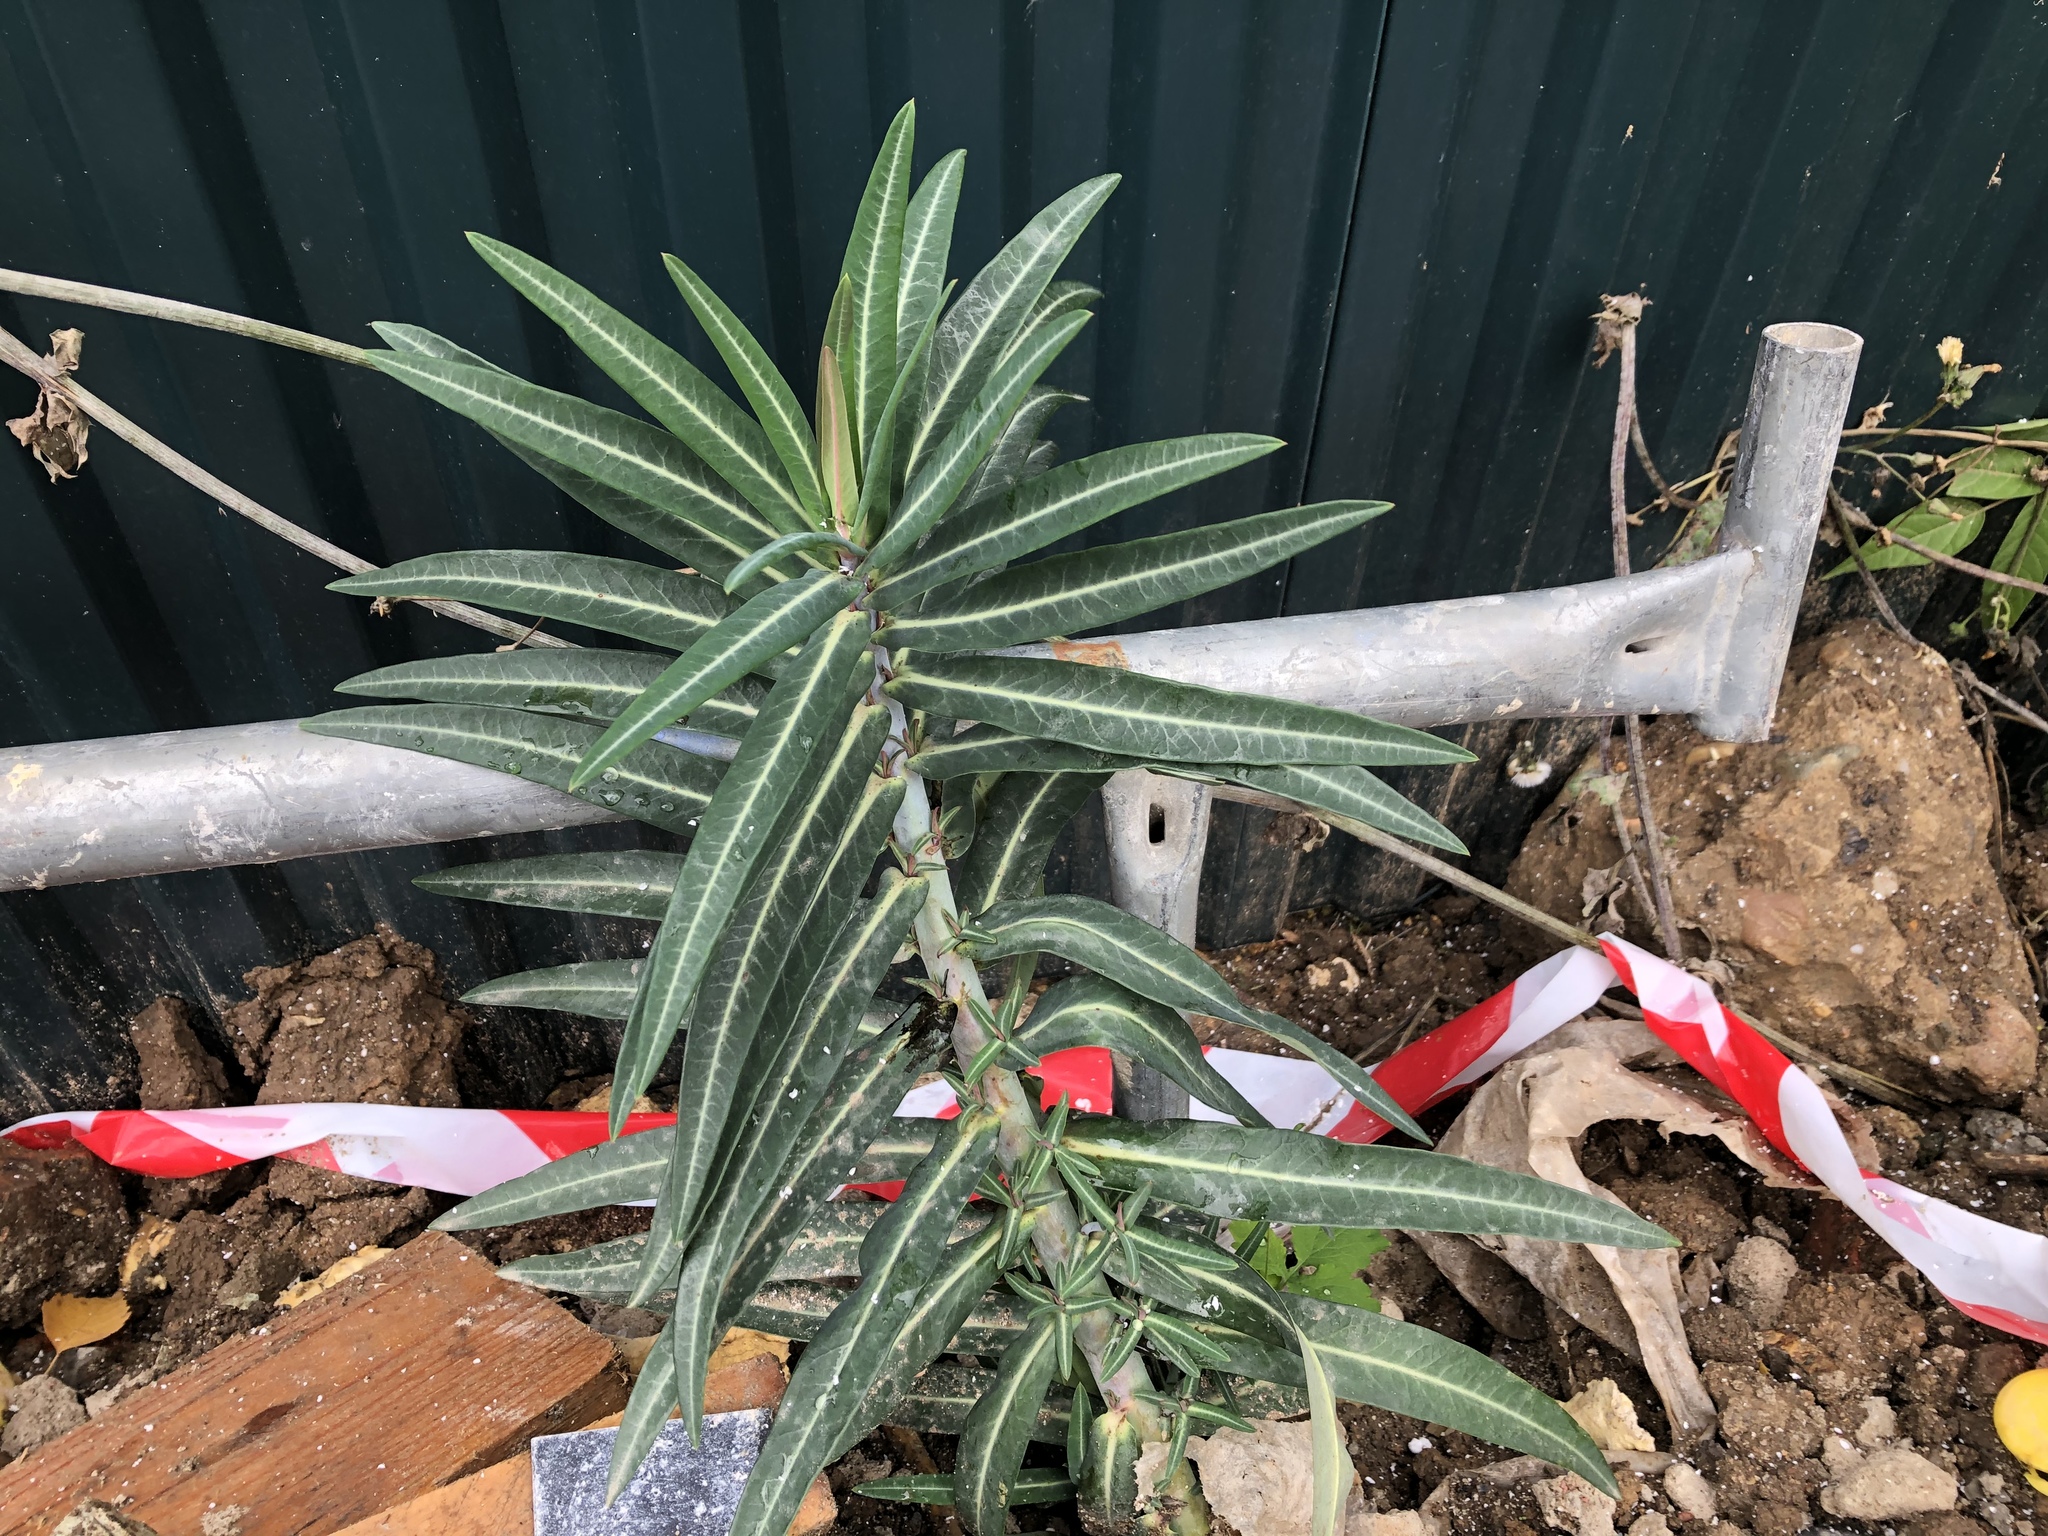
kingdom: Plantae
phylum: Tracheophyta
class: Magnoliopsida
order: Malpighiales
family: Euphorbiaceae
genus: Euphorbia
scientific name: Euphorbia lathyris
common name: Caper spurge
